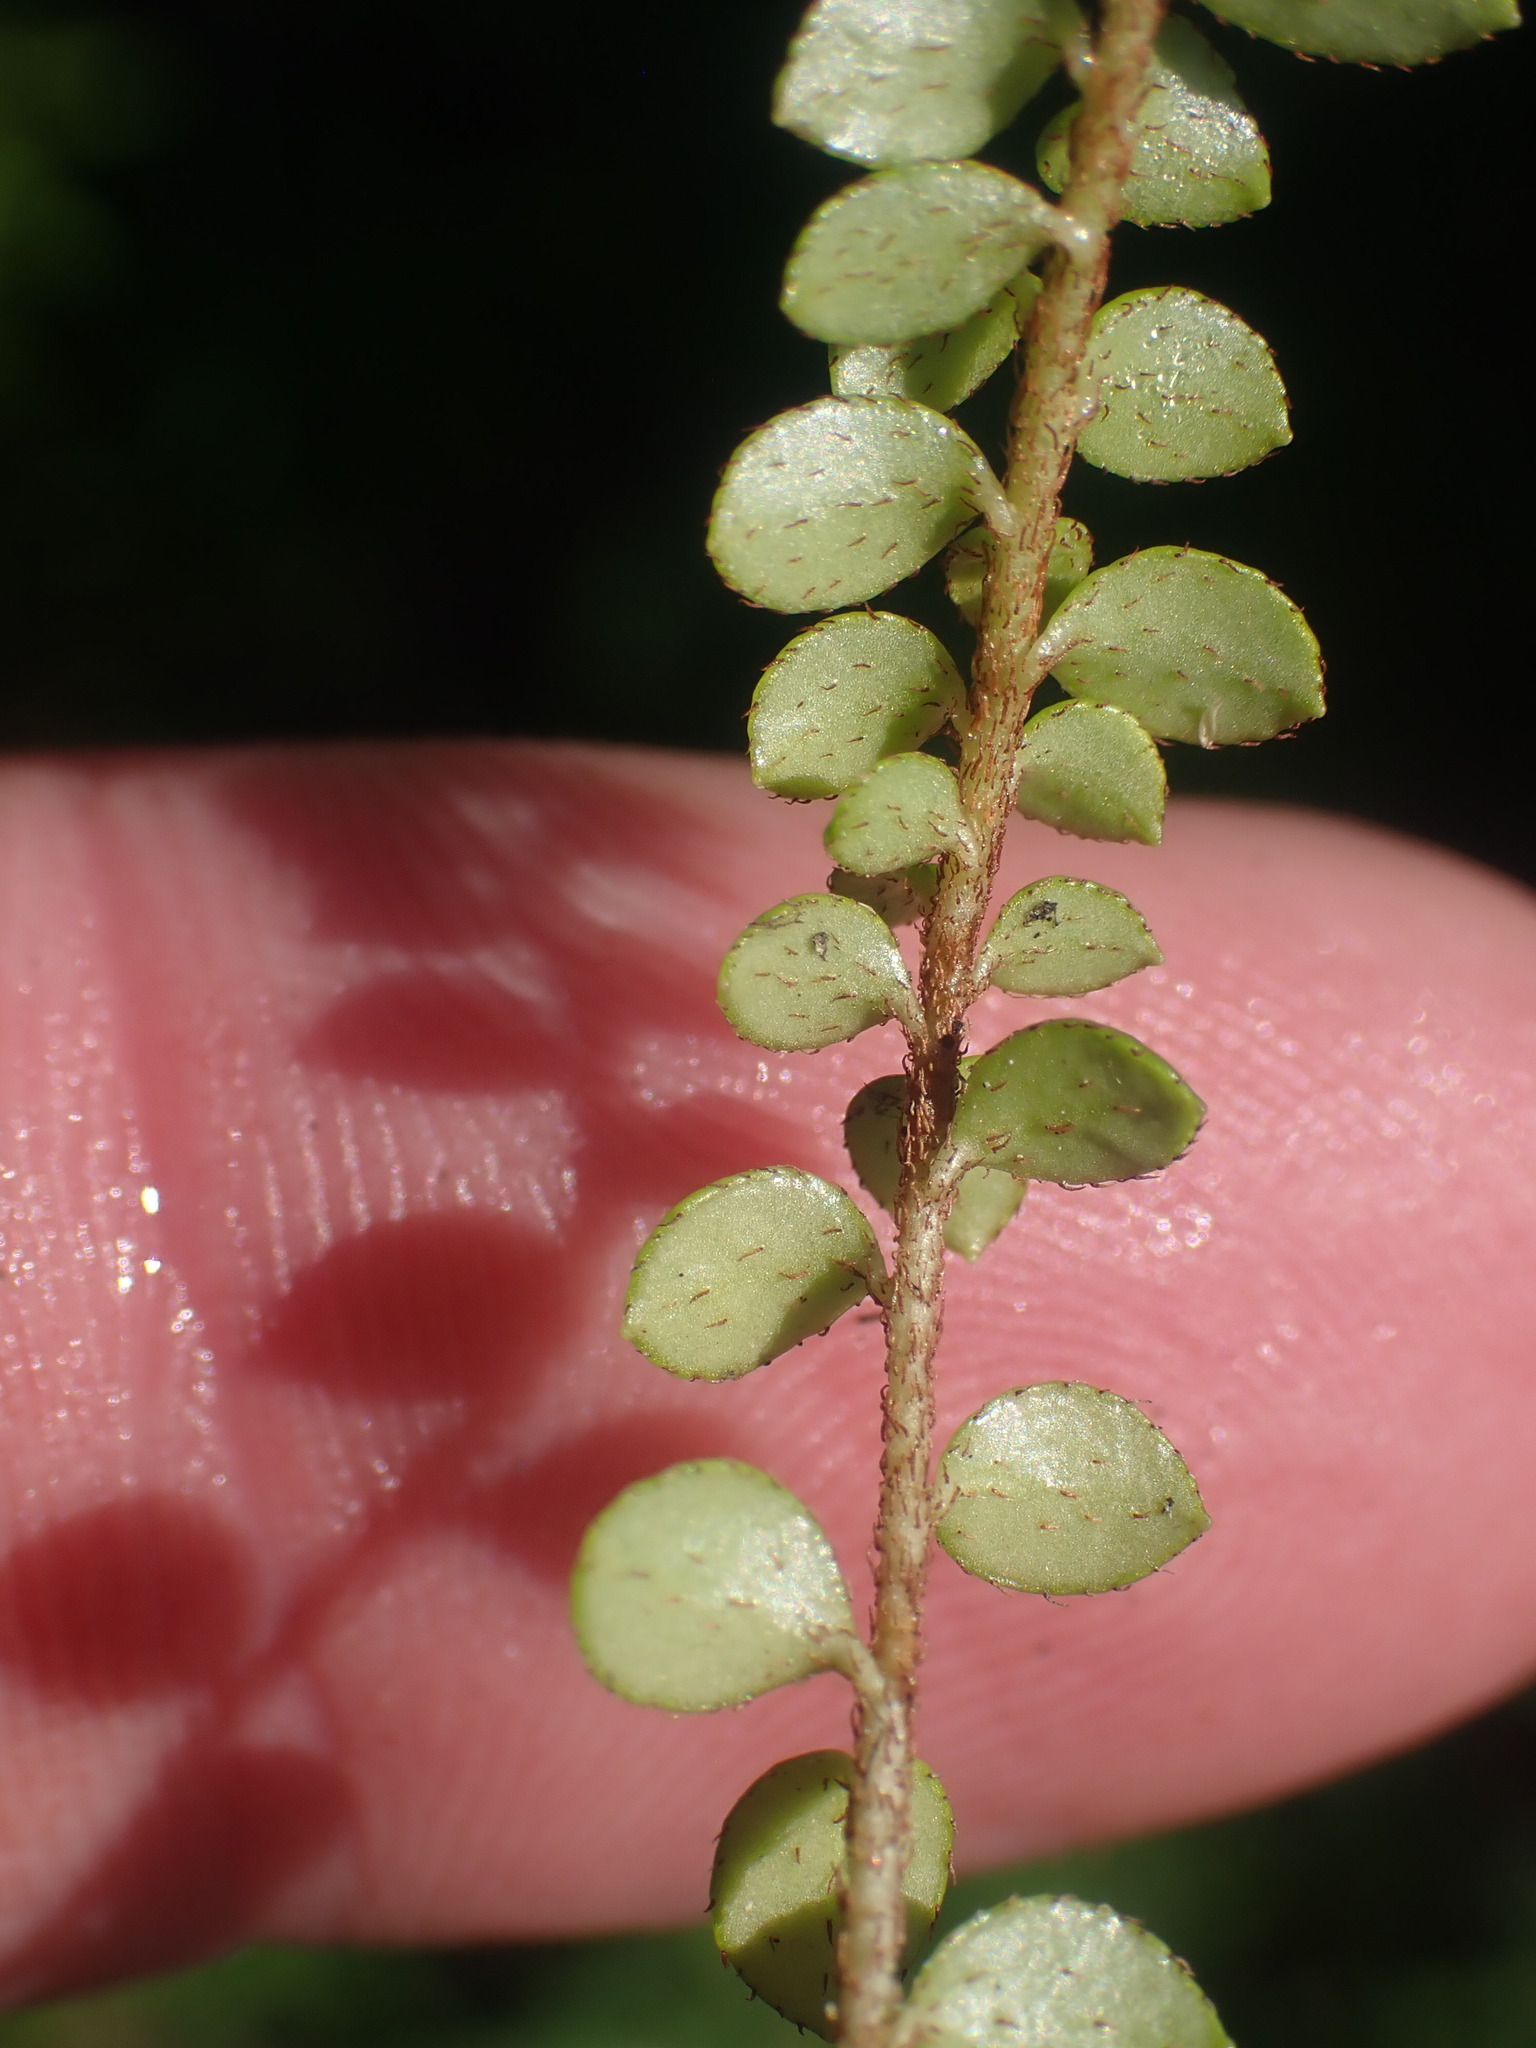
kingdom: Plantae
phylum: Tracheophyta
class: Magnoliopsida
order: Ericales
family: Ericaceae
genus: Gaultheria
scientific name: Gaultheria hispidula
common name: Cancer wintergreen
